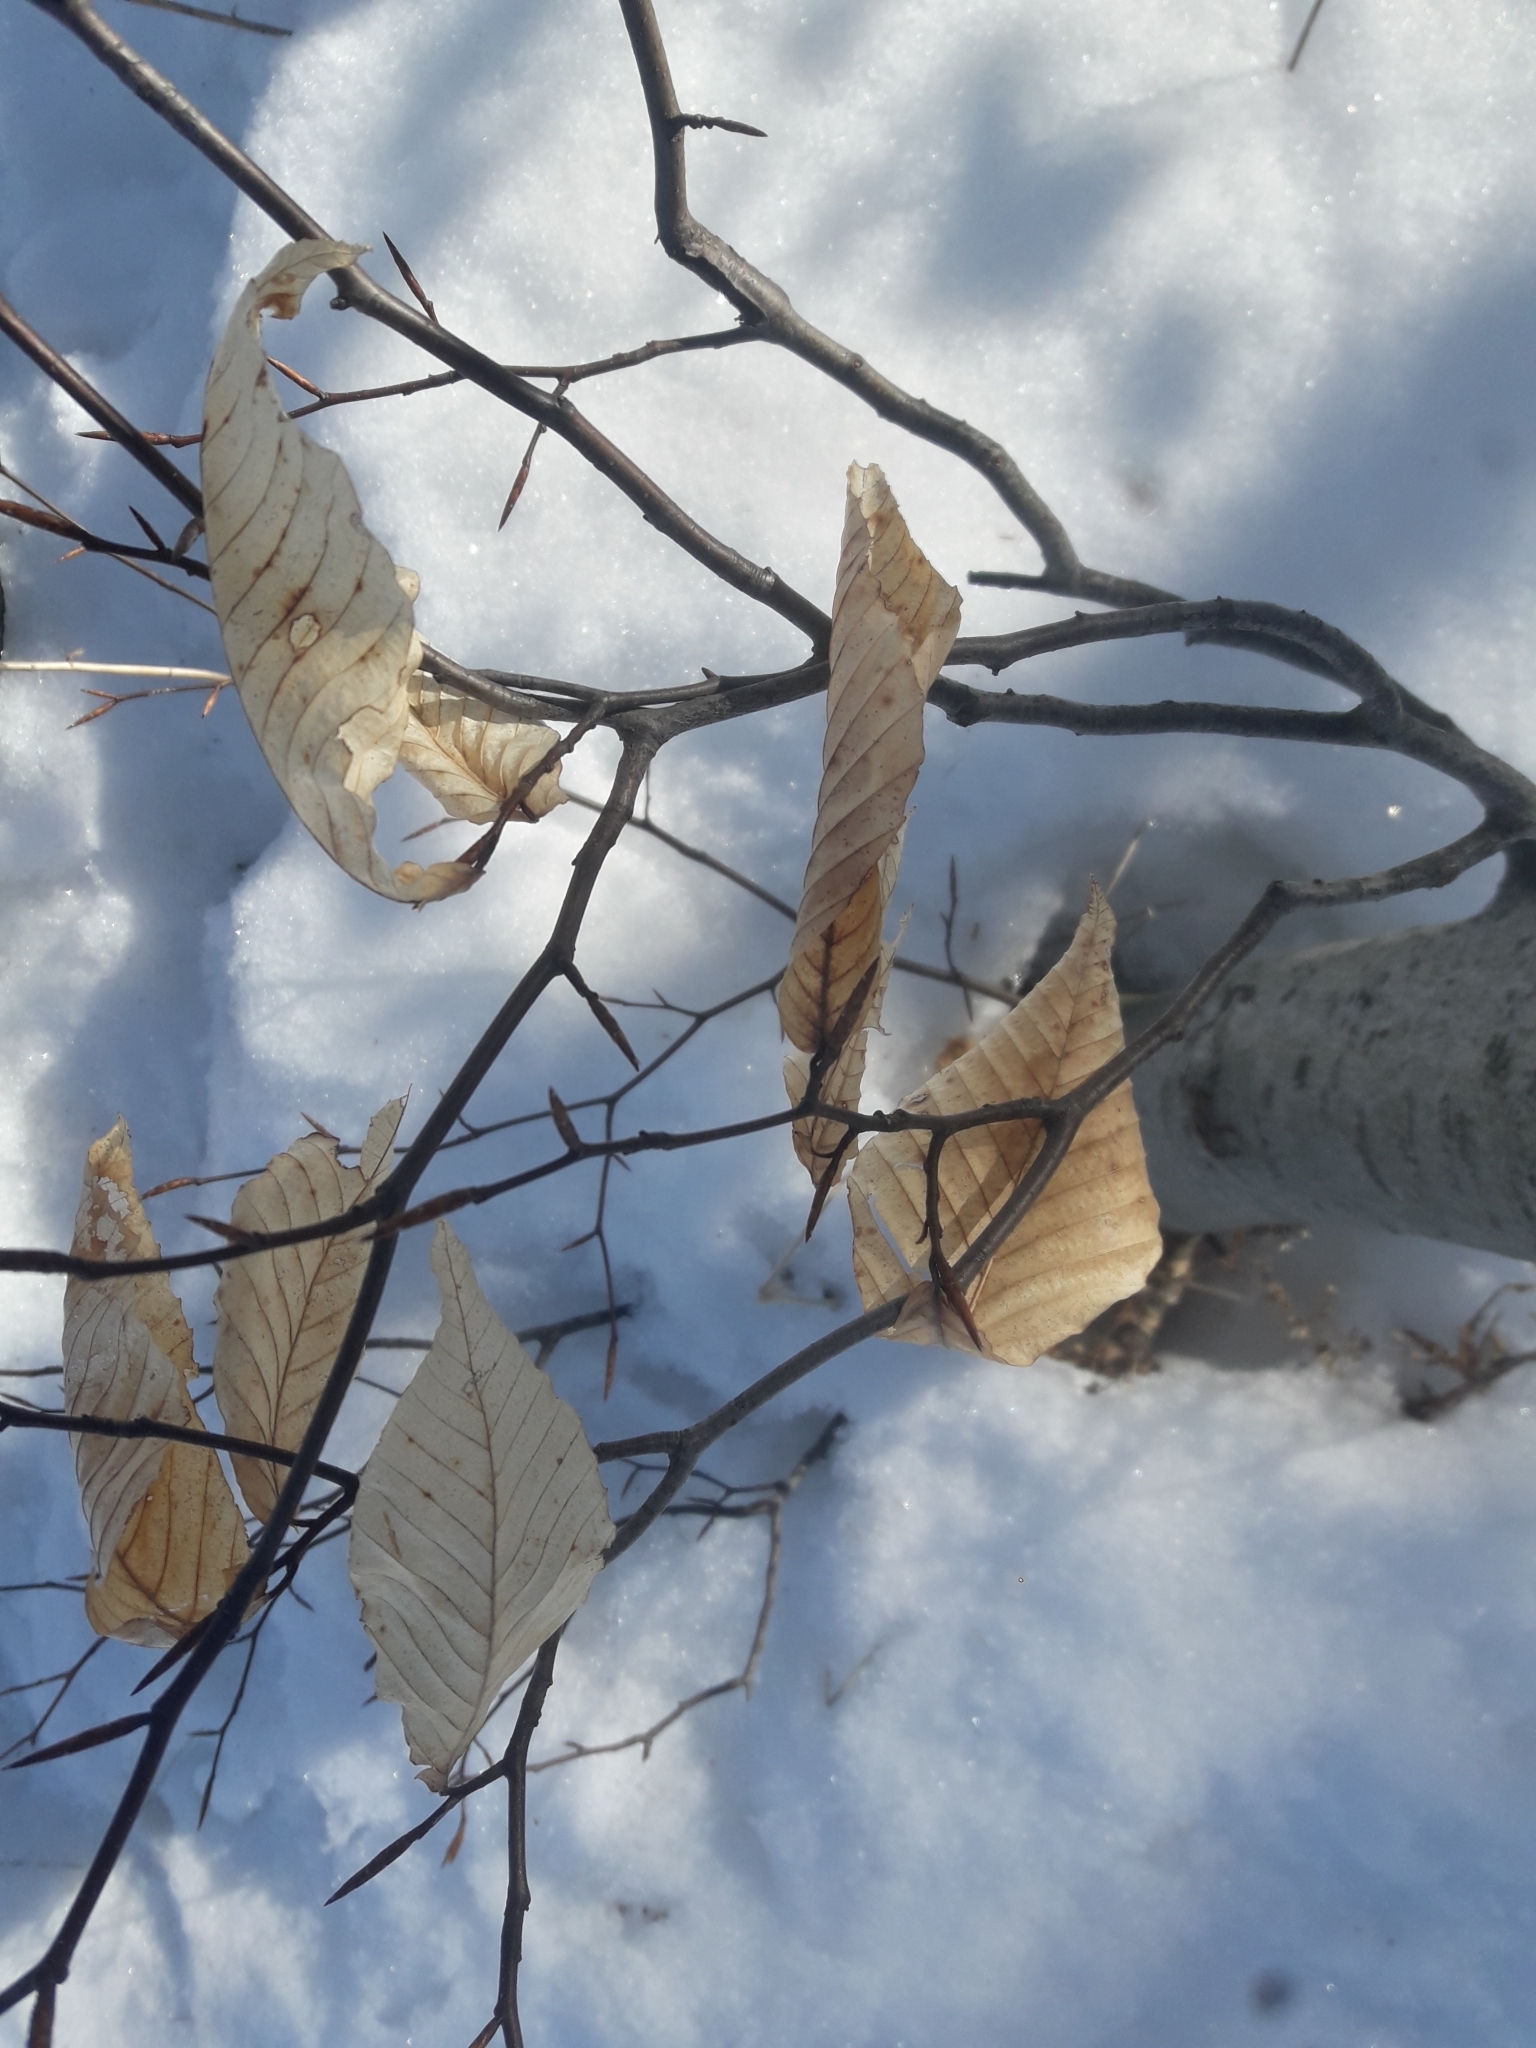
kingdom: Plantae
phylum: Tracheophyta
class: Magnoliopsida
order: Fagales
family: Fagaceae
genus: Fagus
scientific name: Fagus grandifolia
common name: American beech
